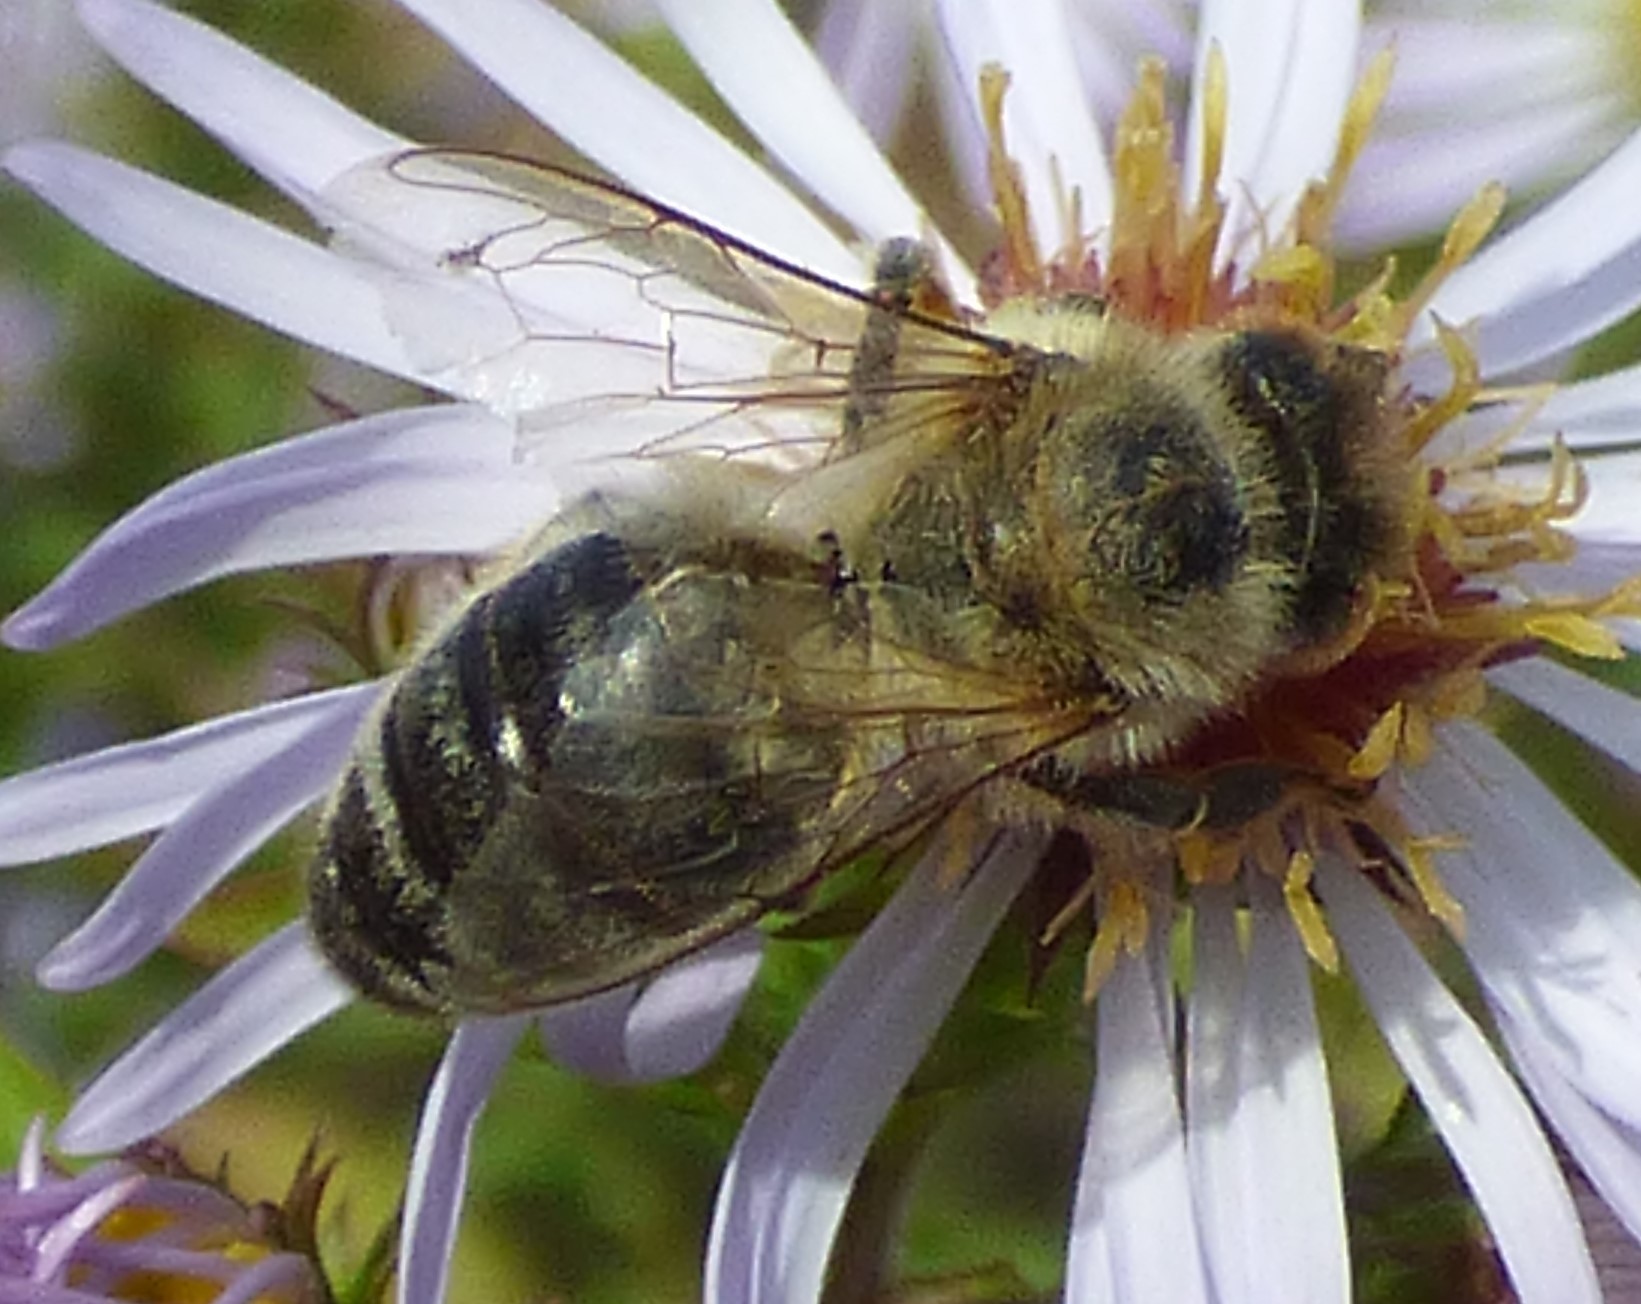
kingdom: Animalia
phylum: Arthropoda
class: Insecta
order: Hymenoptera
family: Apidae
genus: Apis
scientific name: Apis mellifera
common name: Honey bee
